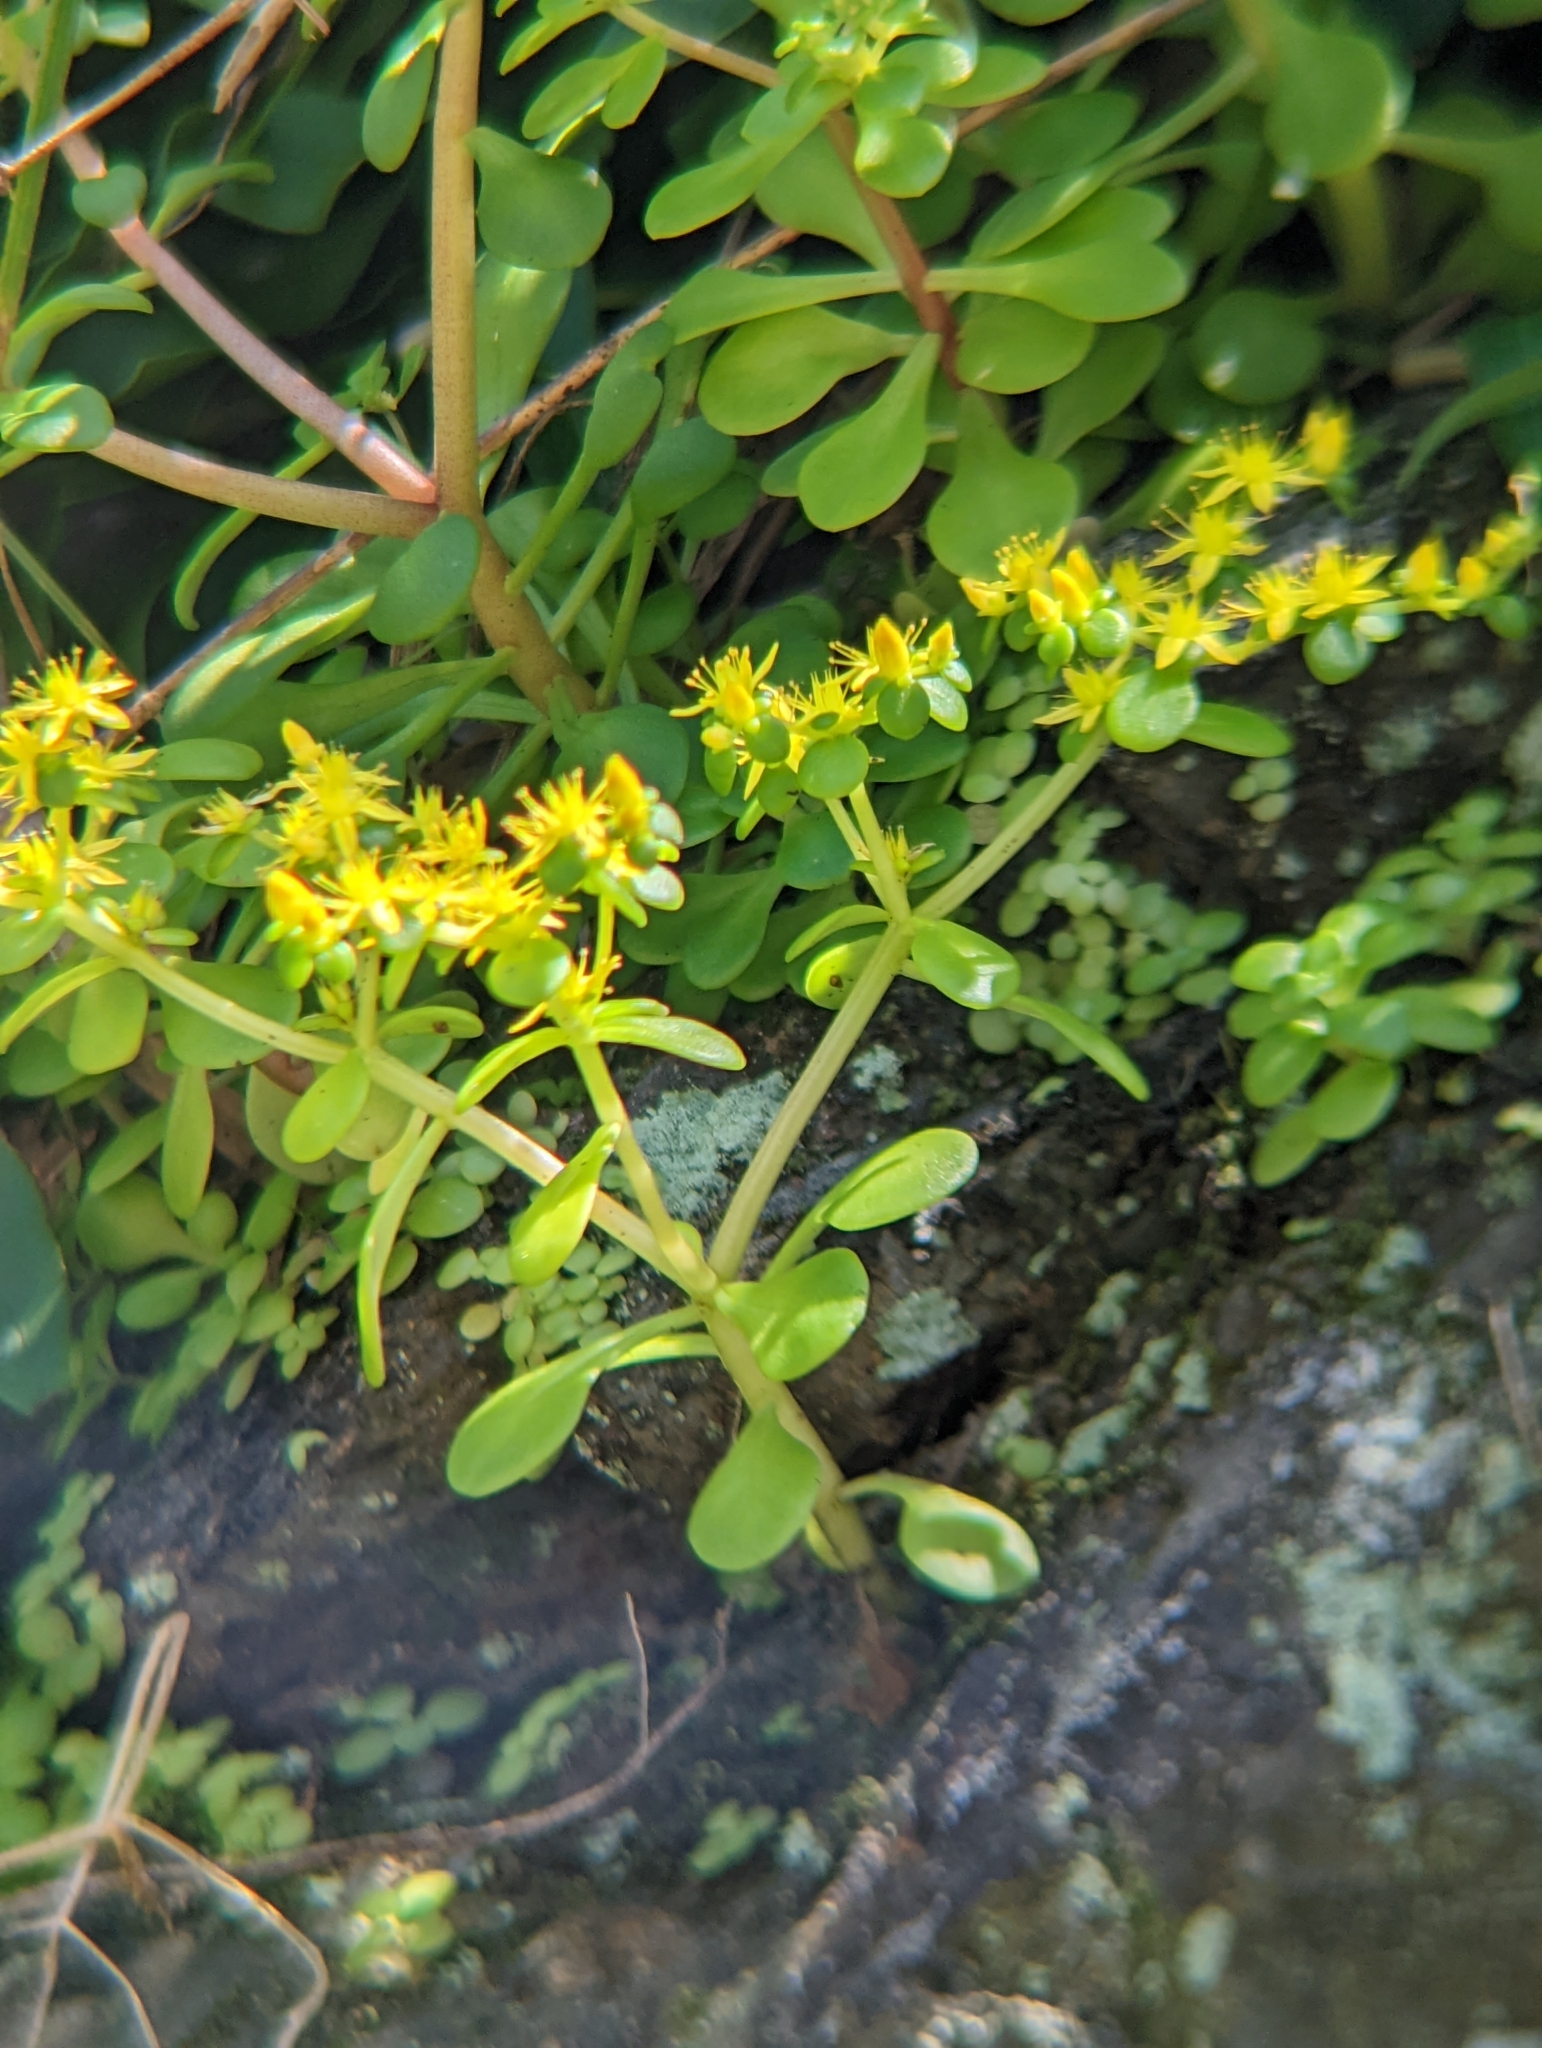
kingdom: Plantae
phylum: Tracheophyta
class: Magnoliopsida
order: Saxifragales
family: Crassulaceae
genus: Sedum
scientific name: Sedum formosanum
